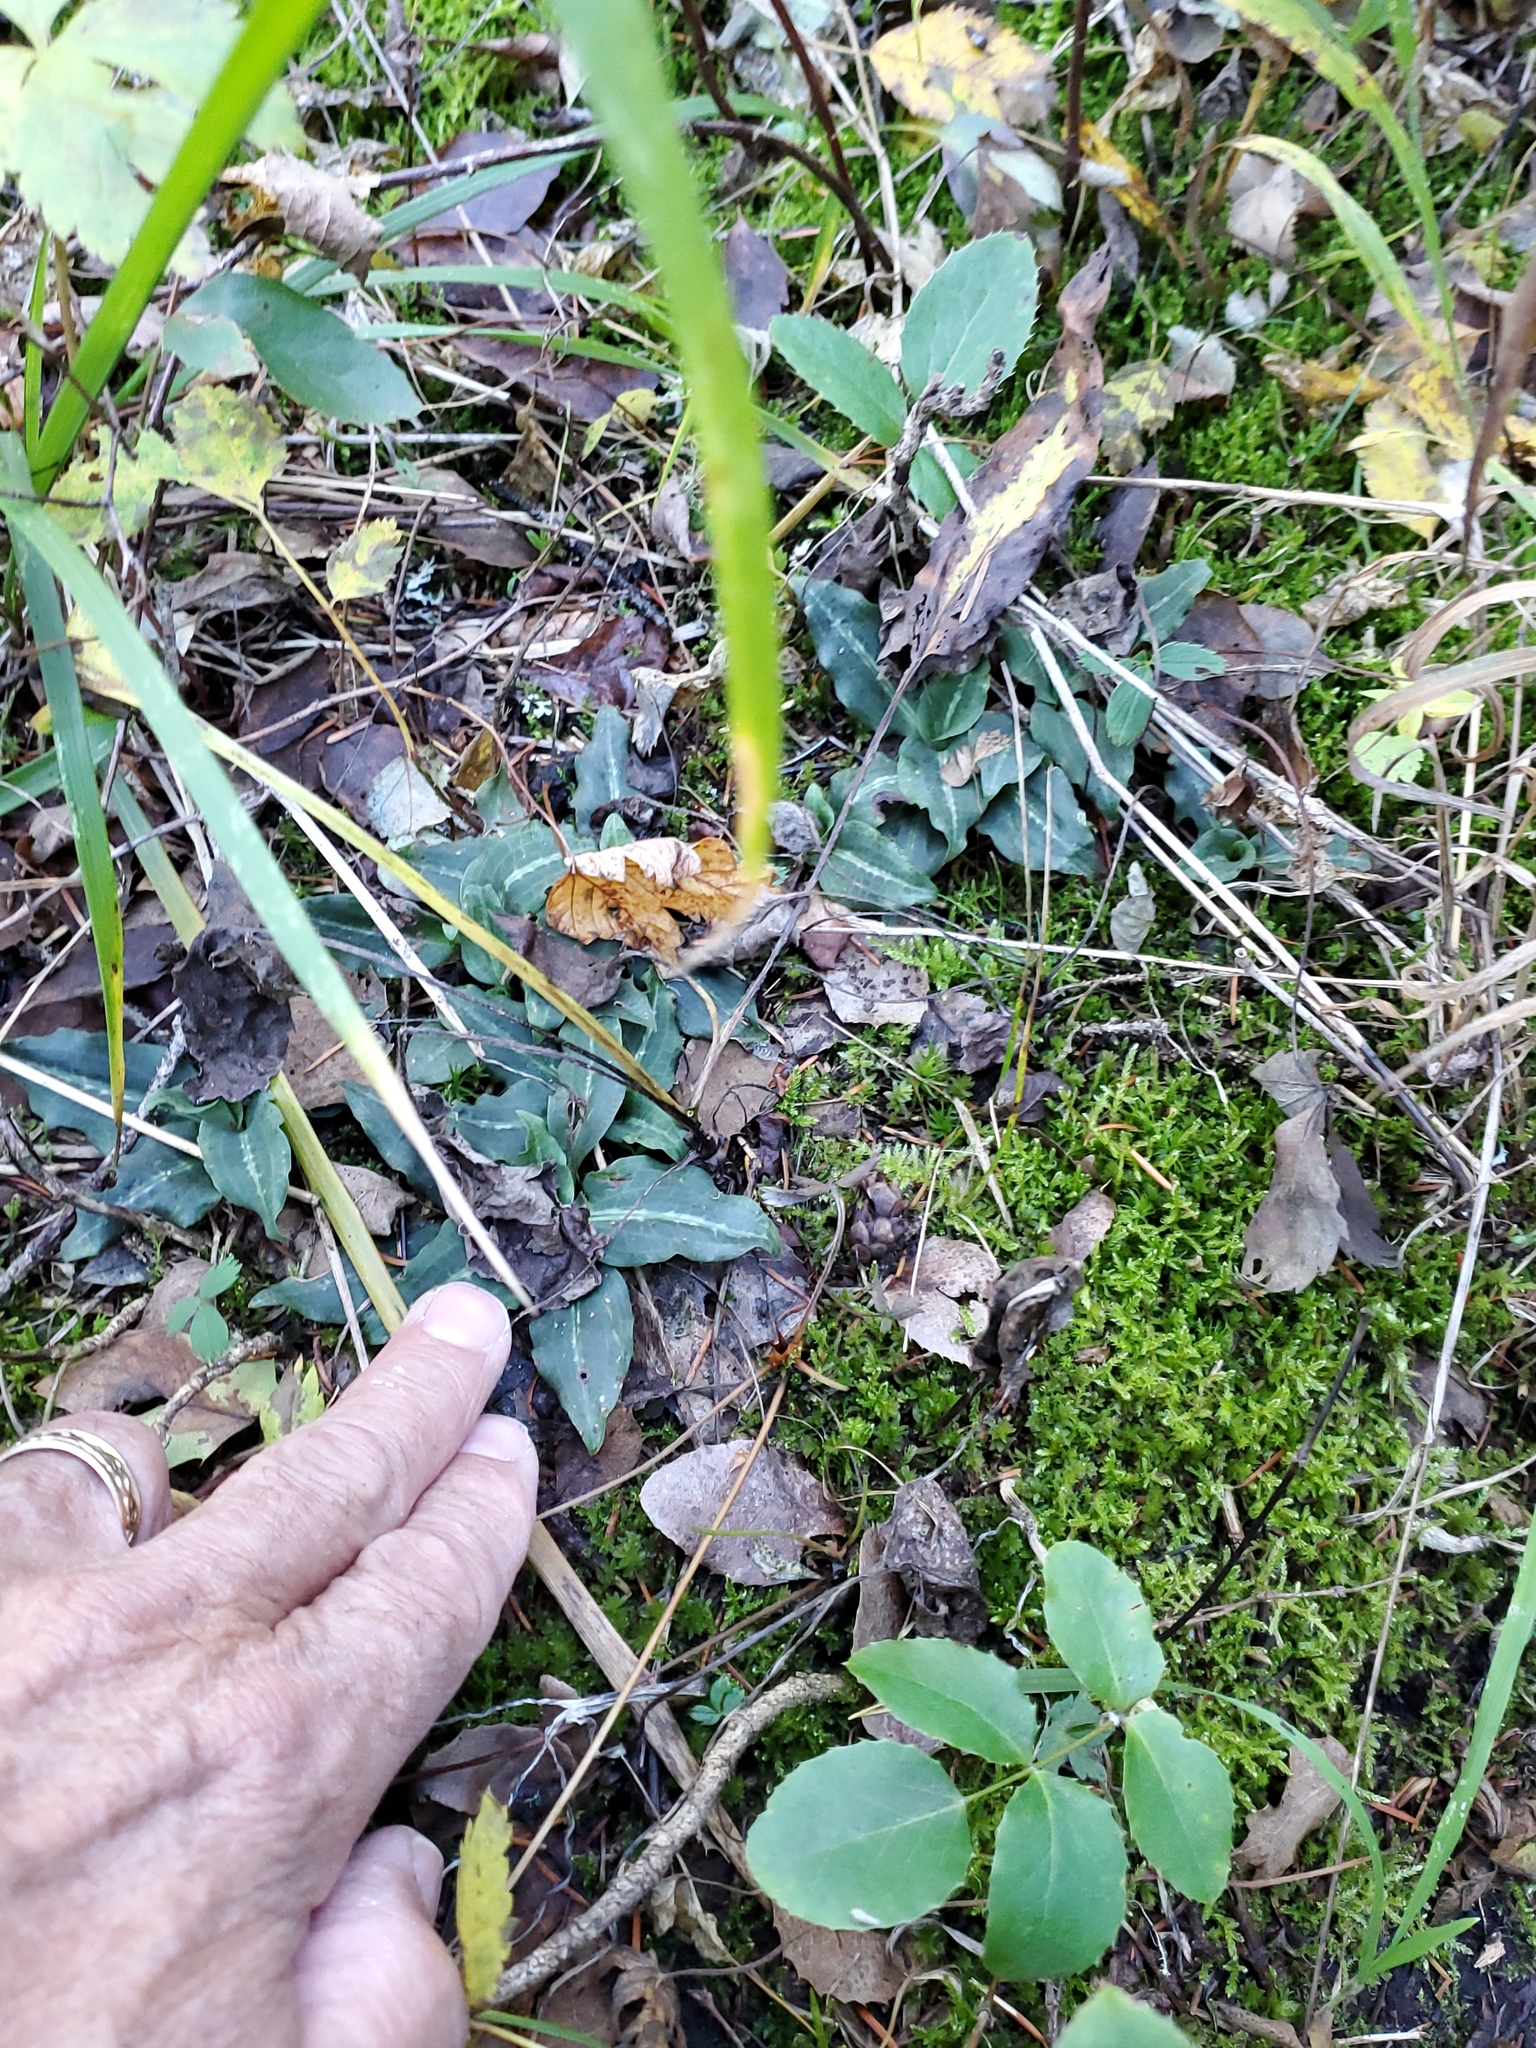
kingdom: Plantae
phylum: Tracheophyta
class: Liliopsida
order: Asparagales
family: Orchidaceae
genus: Goodyera
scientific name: Goodyera oblongifolia
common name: Giant rattlesnake-plantain
